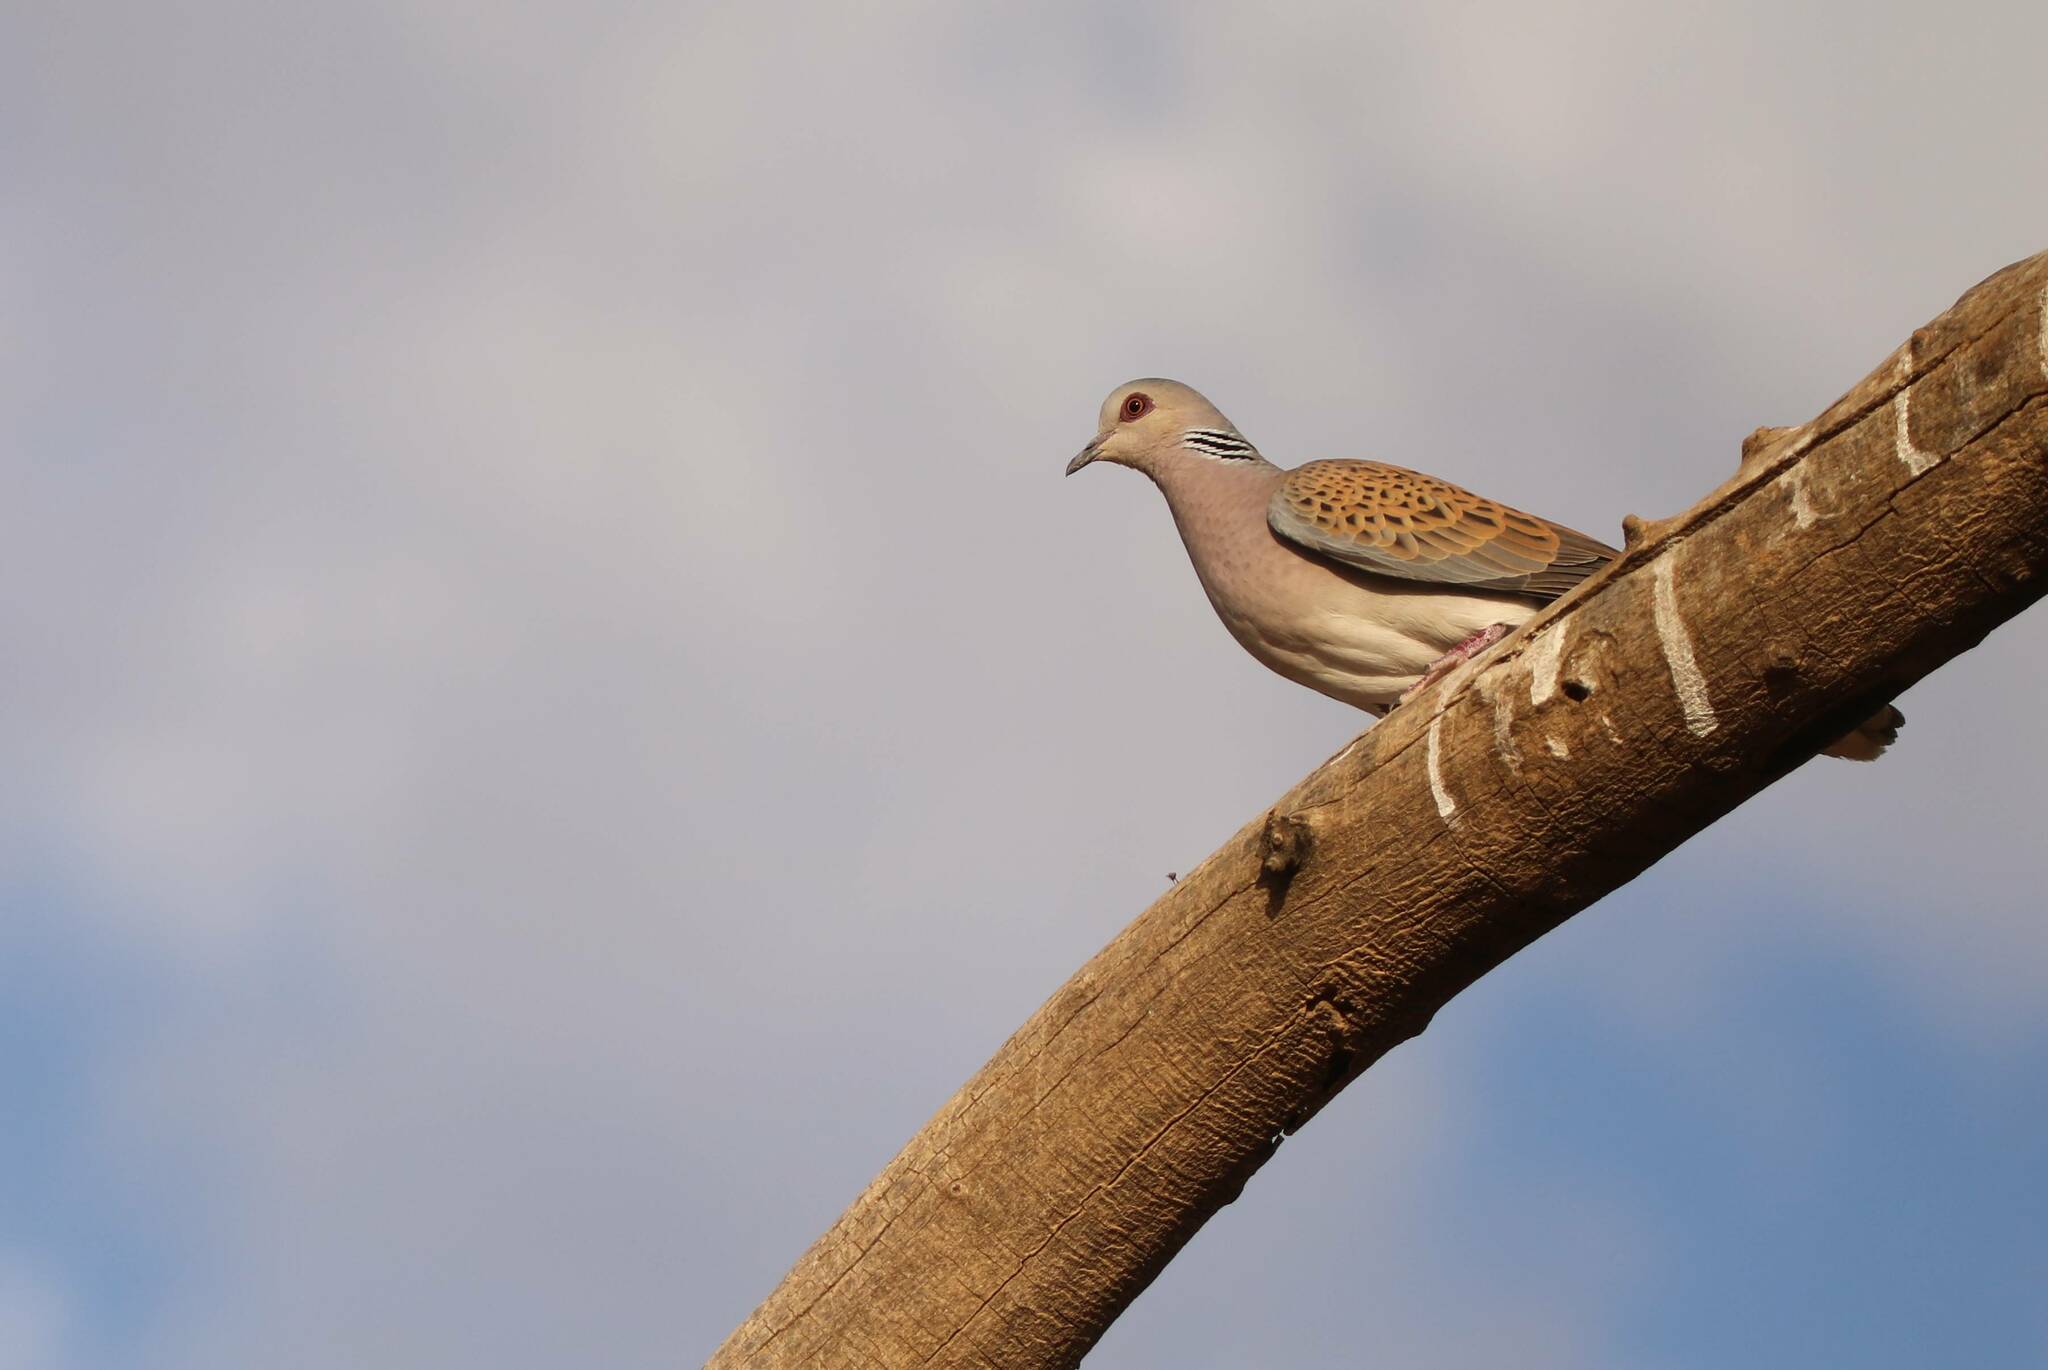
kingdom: Animalia
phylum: Chordata
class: Aves
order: Columbiformes
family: Columbidae
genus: Streptopelia
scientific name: Streptopelia turtur
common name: European turtle dove
